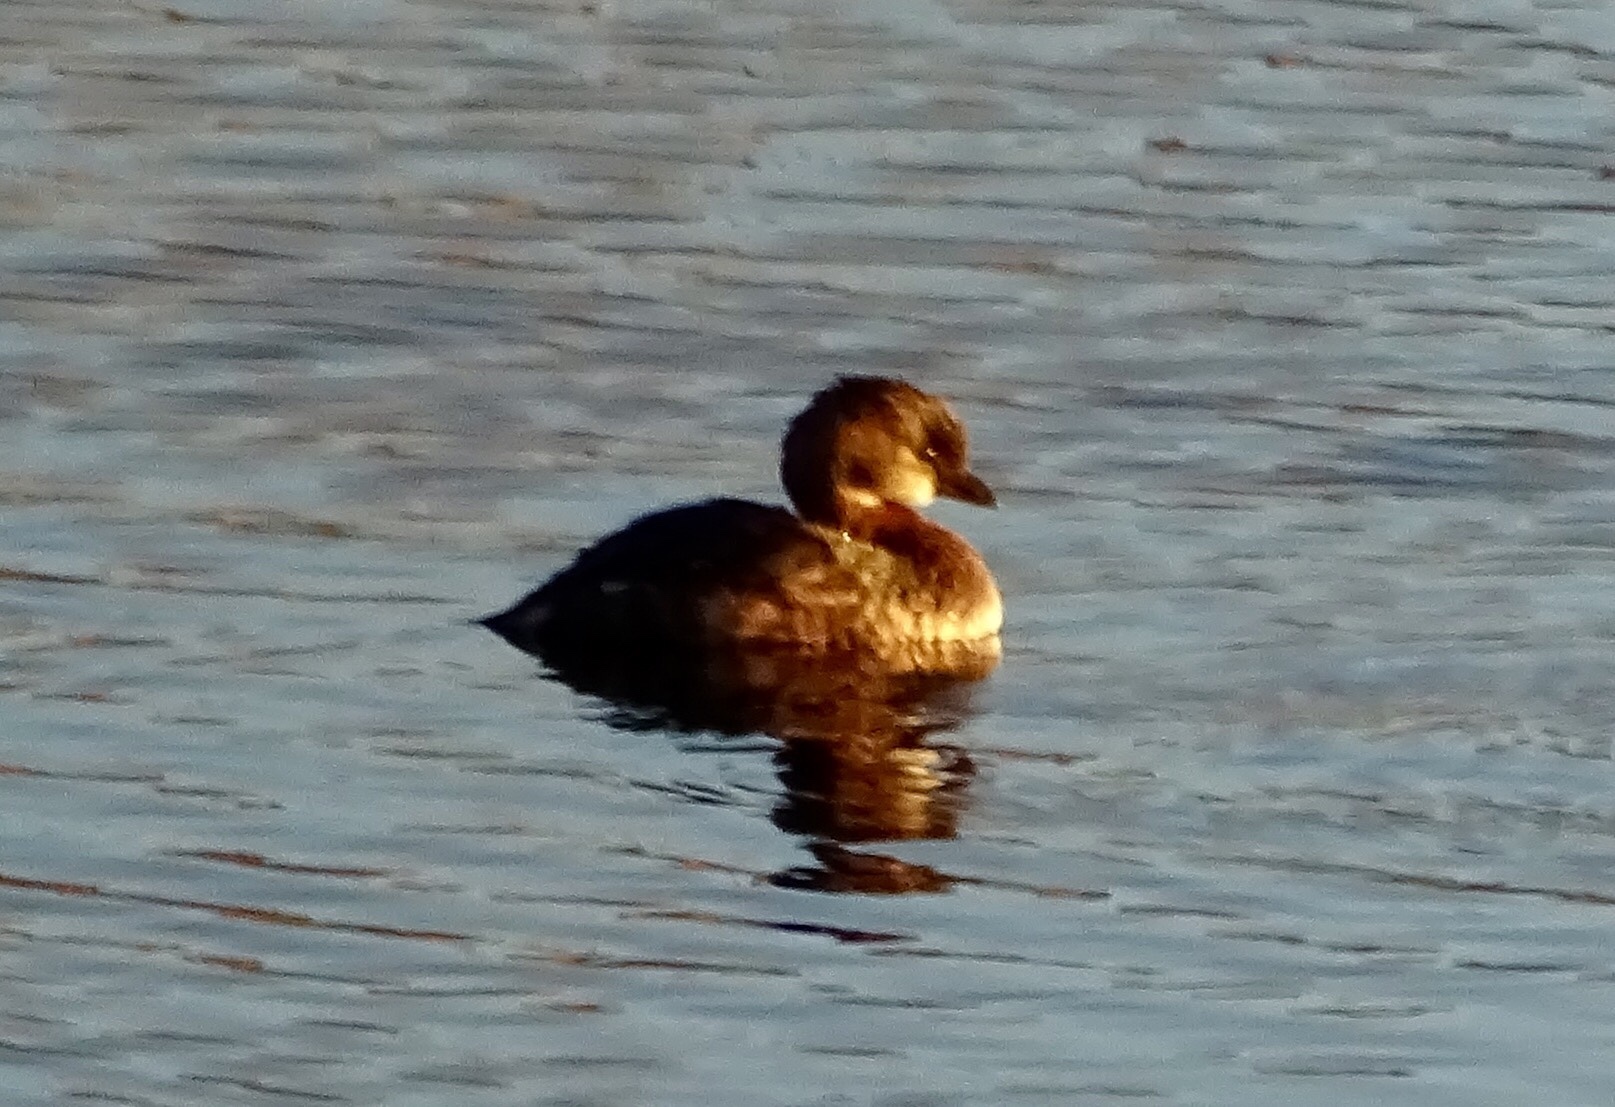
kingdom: Animalia
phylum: Chordata
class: Aves
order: Podicipediformes
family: Podicipedidae
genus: Podilymbus
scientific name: Podilymbus podiceps
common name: Pied-billed grebe
